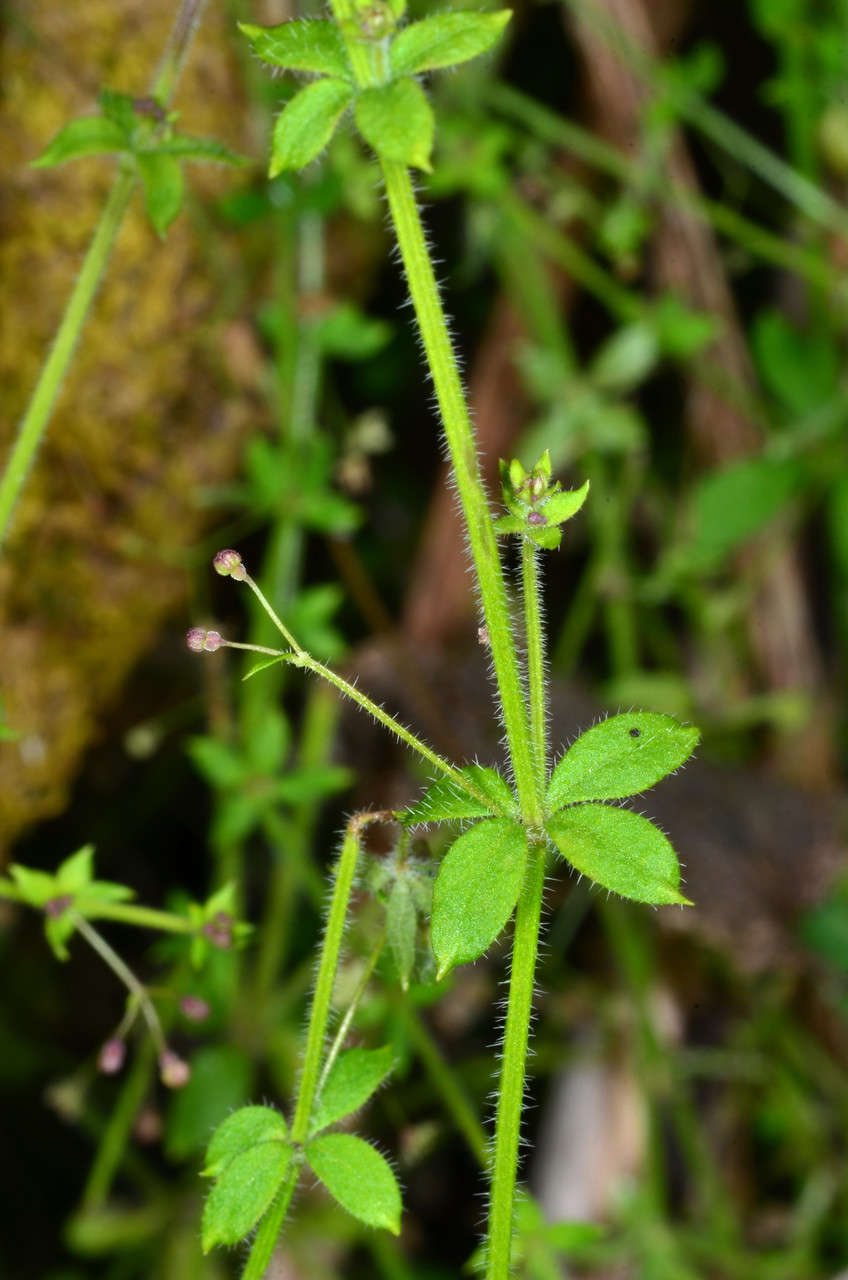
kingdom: Plantae
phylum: Tracheophyta
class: Magnoliopsida
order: Gentianales
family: Rubiaceae
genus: Galium
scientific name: Galium leptogonium
